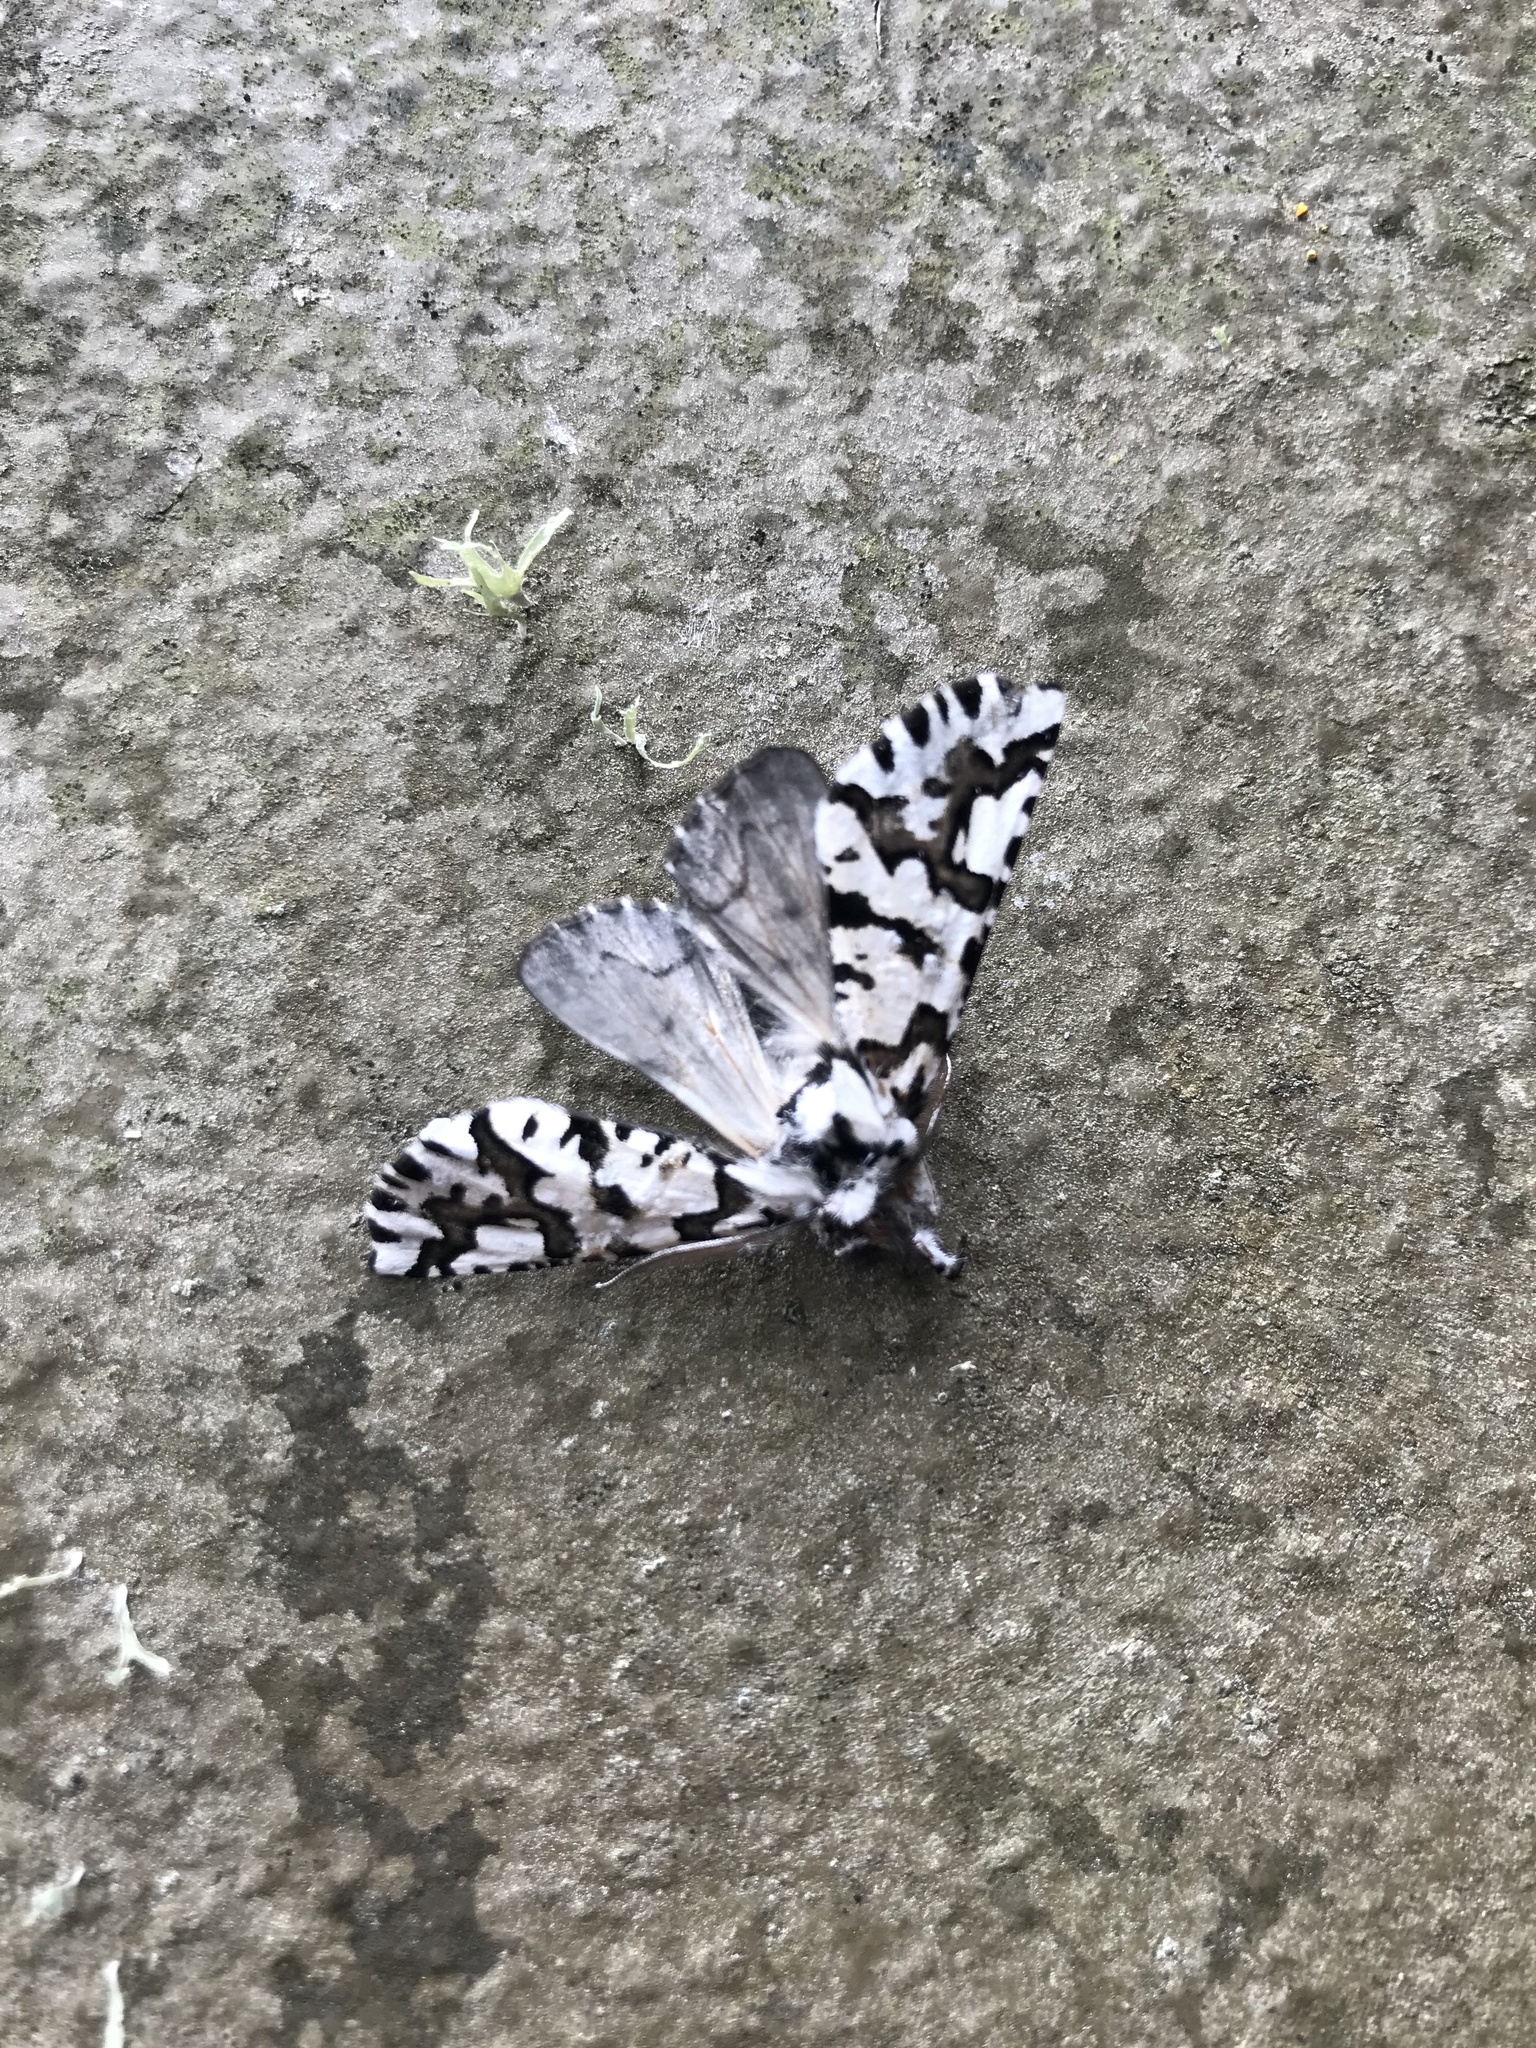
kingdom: Animalia
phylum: Arthropoda
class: Insecta
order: Lepidoptera
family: Geometridae
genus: Declana
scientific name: Declana
